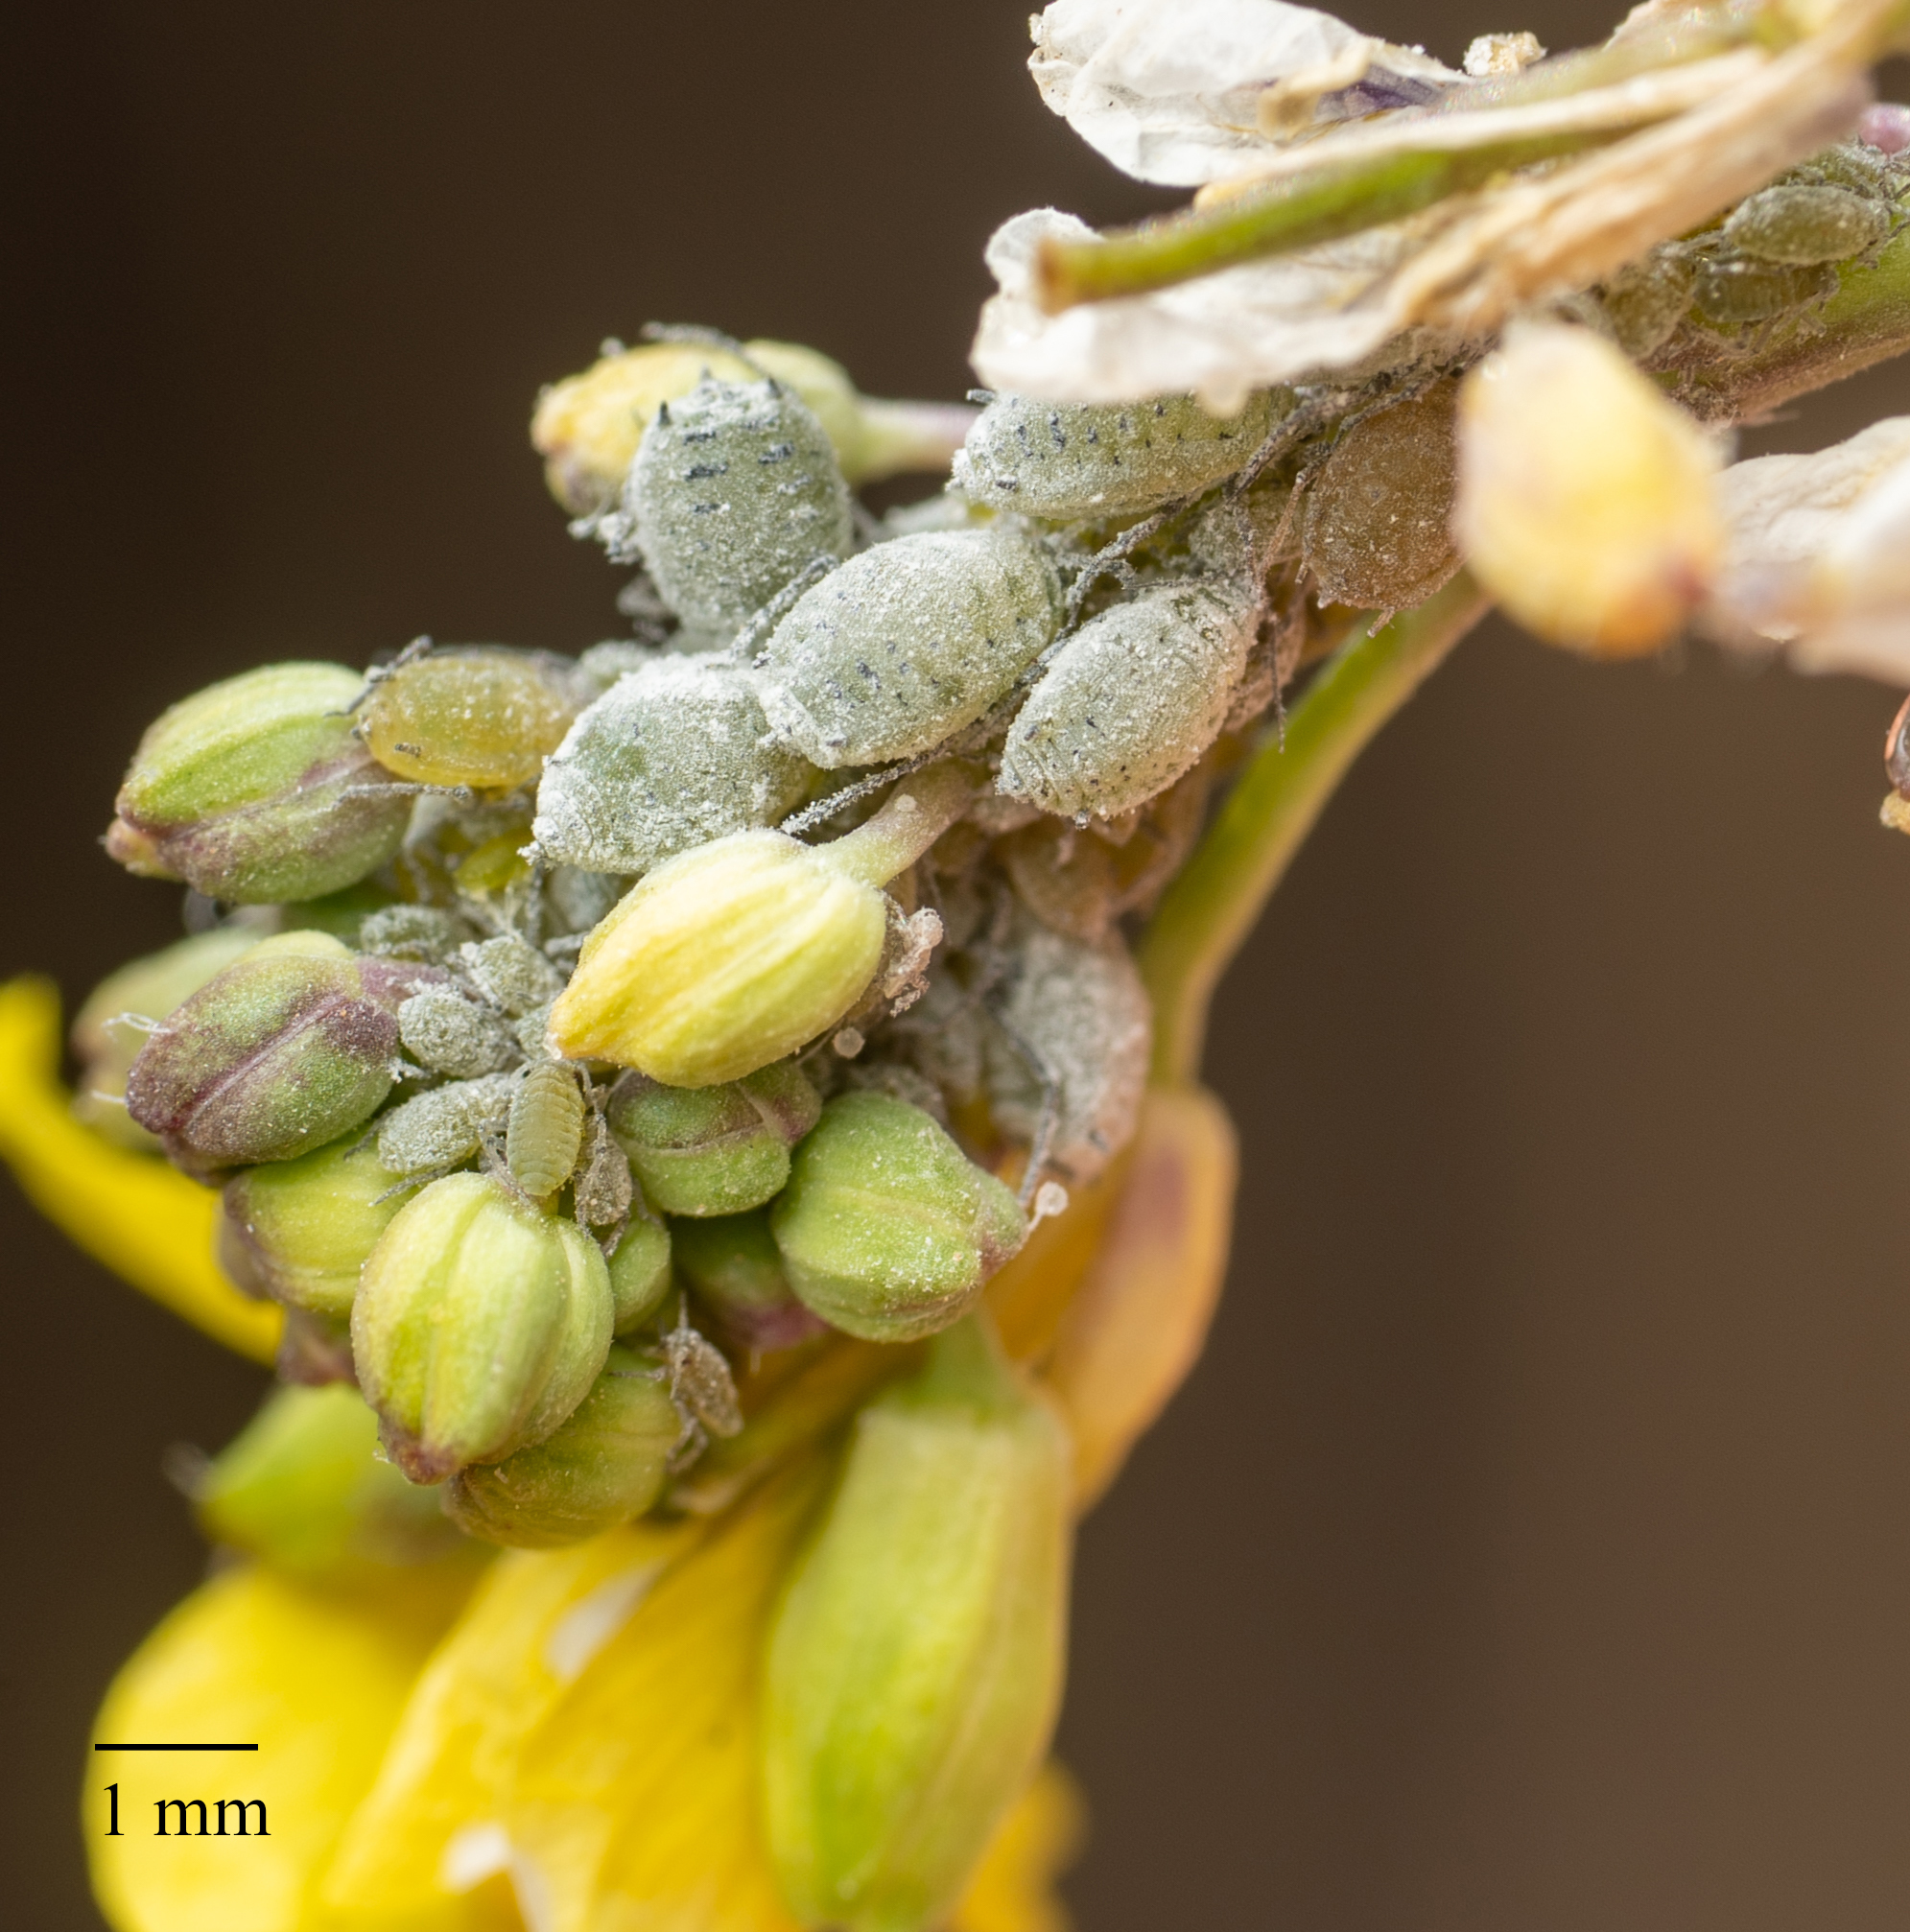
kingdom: Animalia
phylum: Arthropoda
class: Insecta
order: Hemiptera
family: Aphididae
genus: Brevicoryne
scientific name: Brevicoryne brassicae
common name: Cabbage aphid
